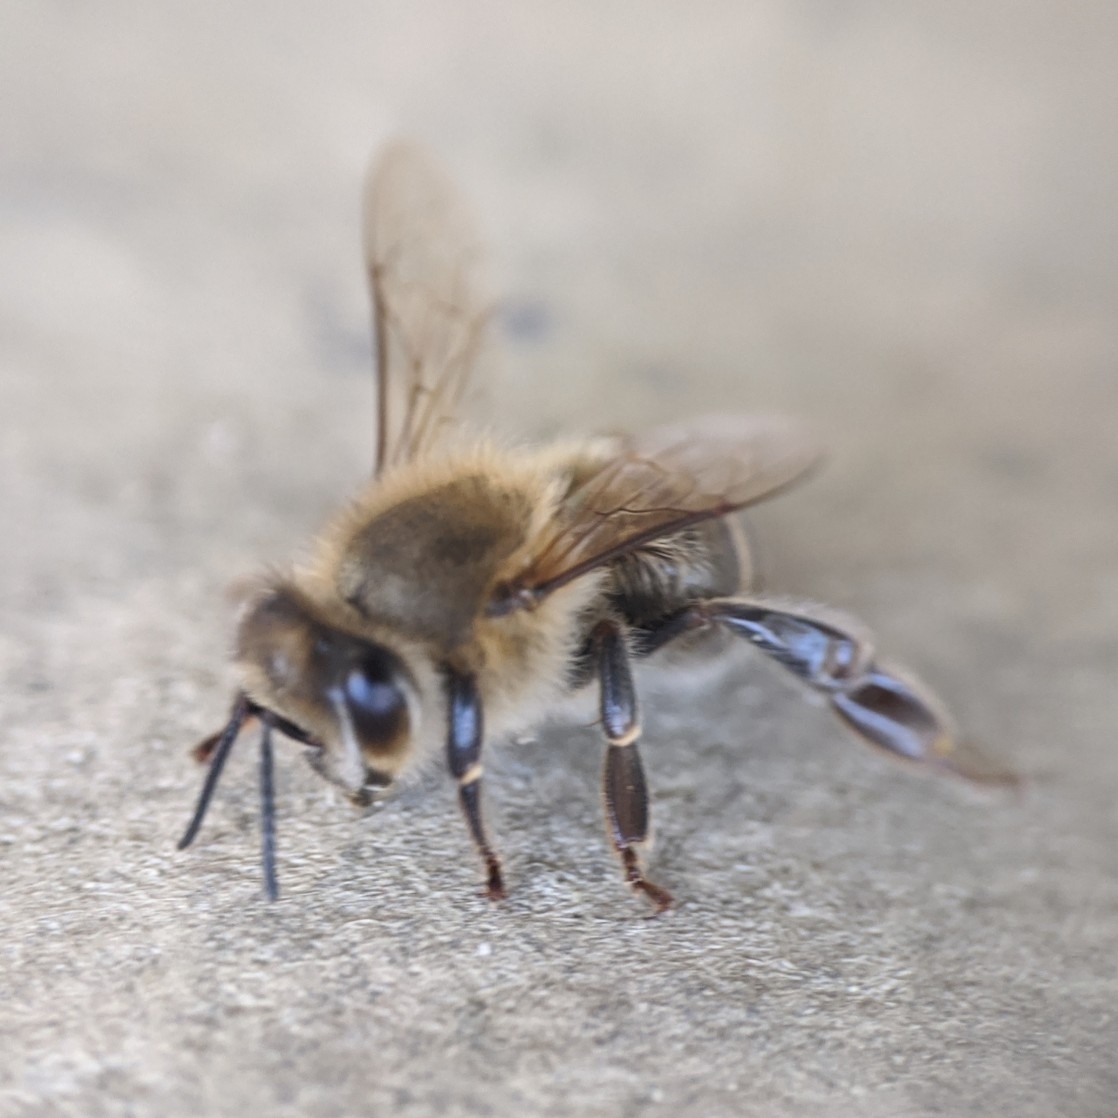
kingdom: Animalia
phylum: Arthropoda
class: Insecta
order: Hymenoptera
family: Apidae
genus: Apis
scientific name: Apis mellifera
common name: Honey bee
